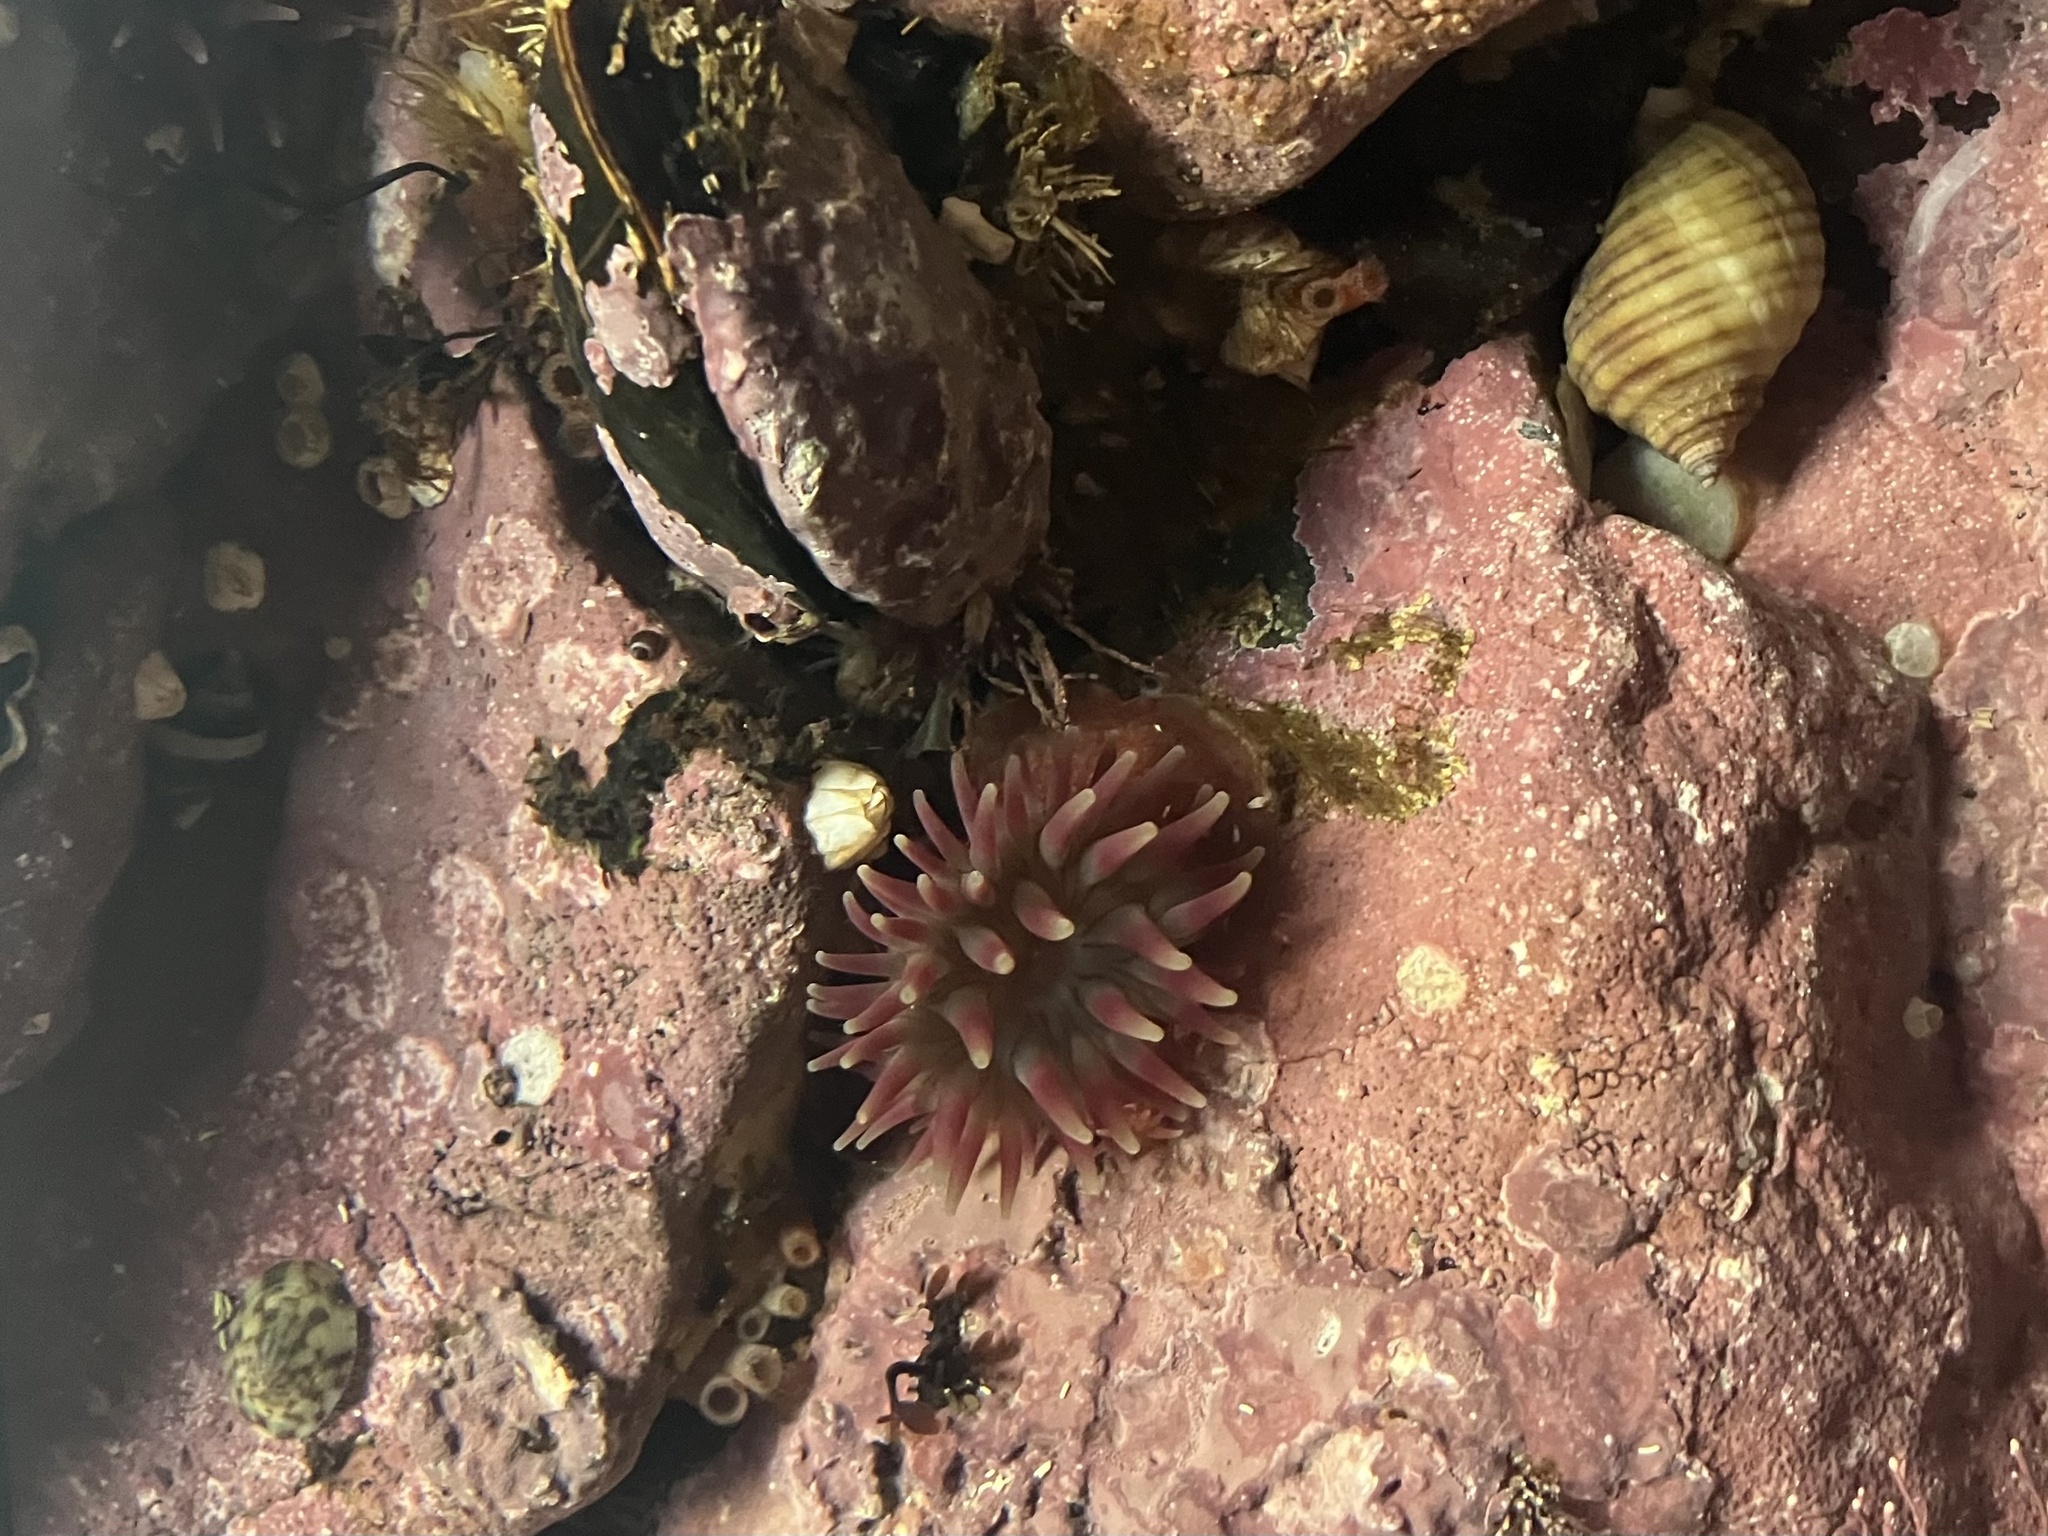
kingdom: Animalia
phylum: Cnidaria
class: Anthozoa
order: Actiniaria
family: Actiniidae
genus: Urticina
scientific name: Urticina crassicornis
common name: Mottled anemone
